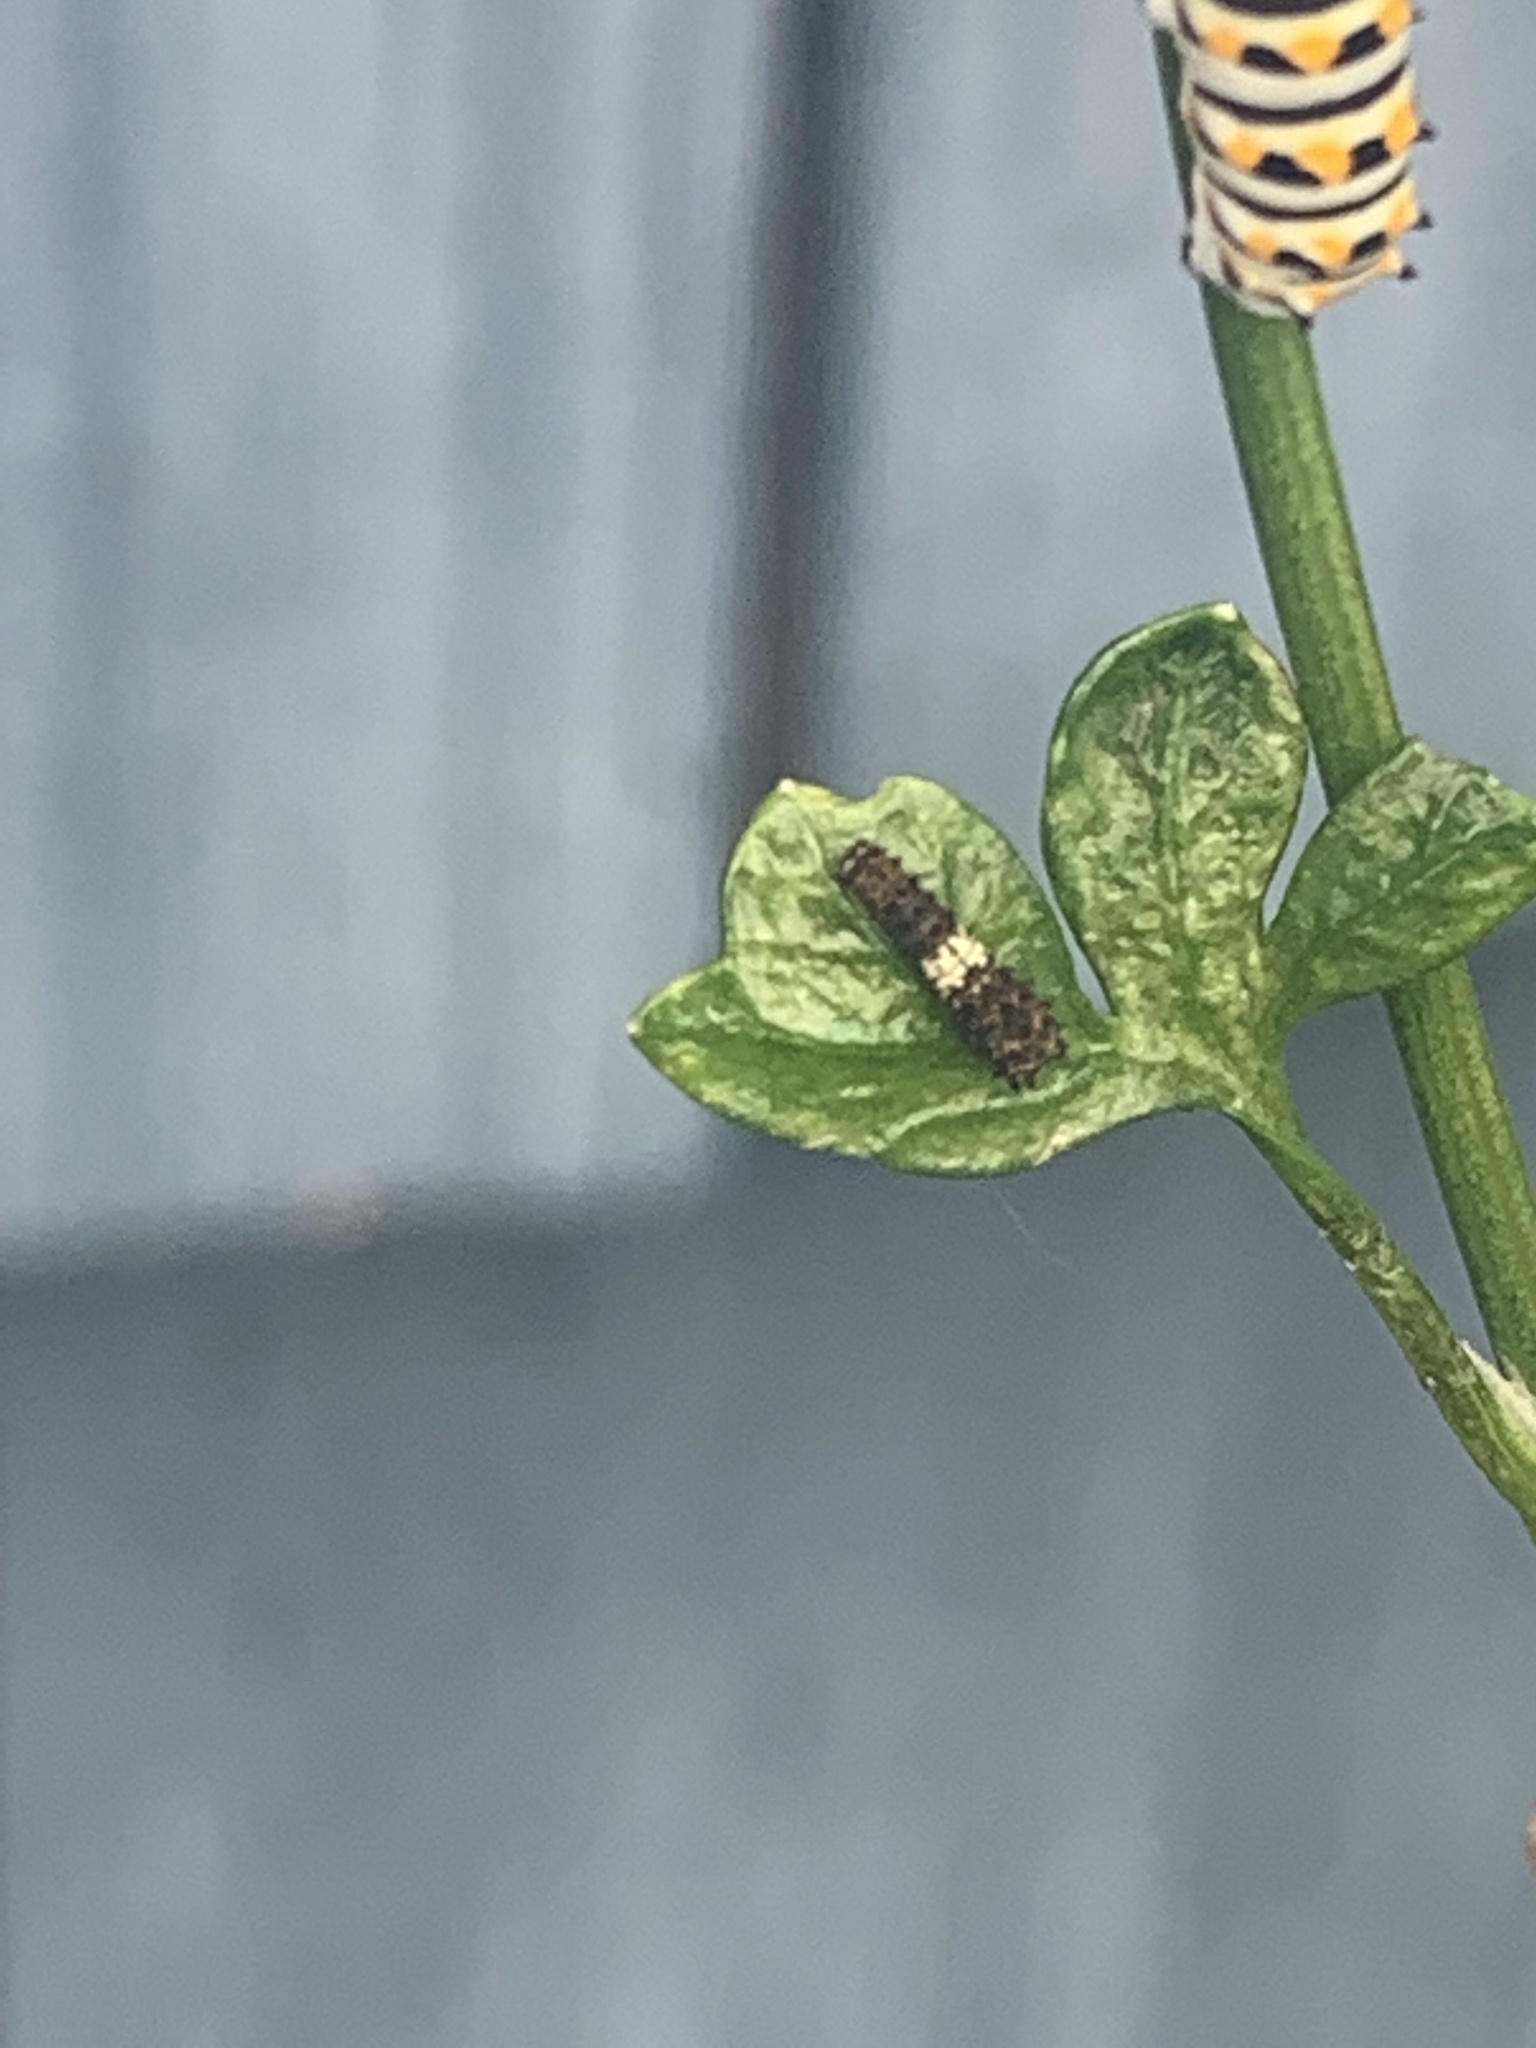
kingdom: Animalia
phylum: Arthropoda
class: Insecta
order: Lepidoptera
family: Papilionidae
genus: Papilio
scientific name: Papilio polyxenes
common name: Black swallowtail
